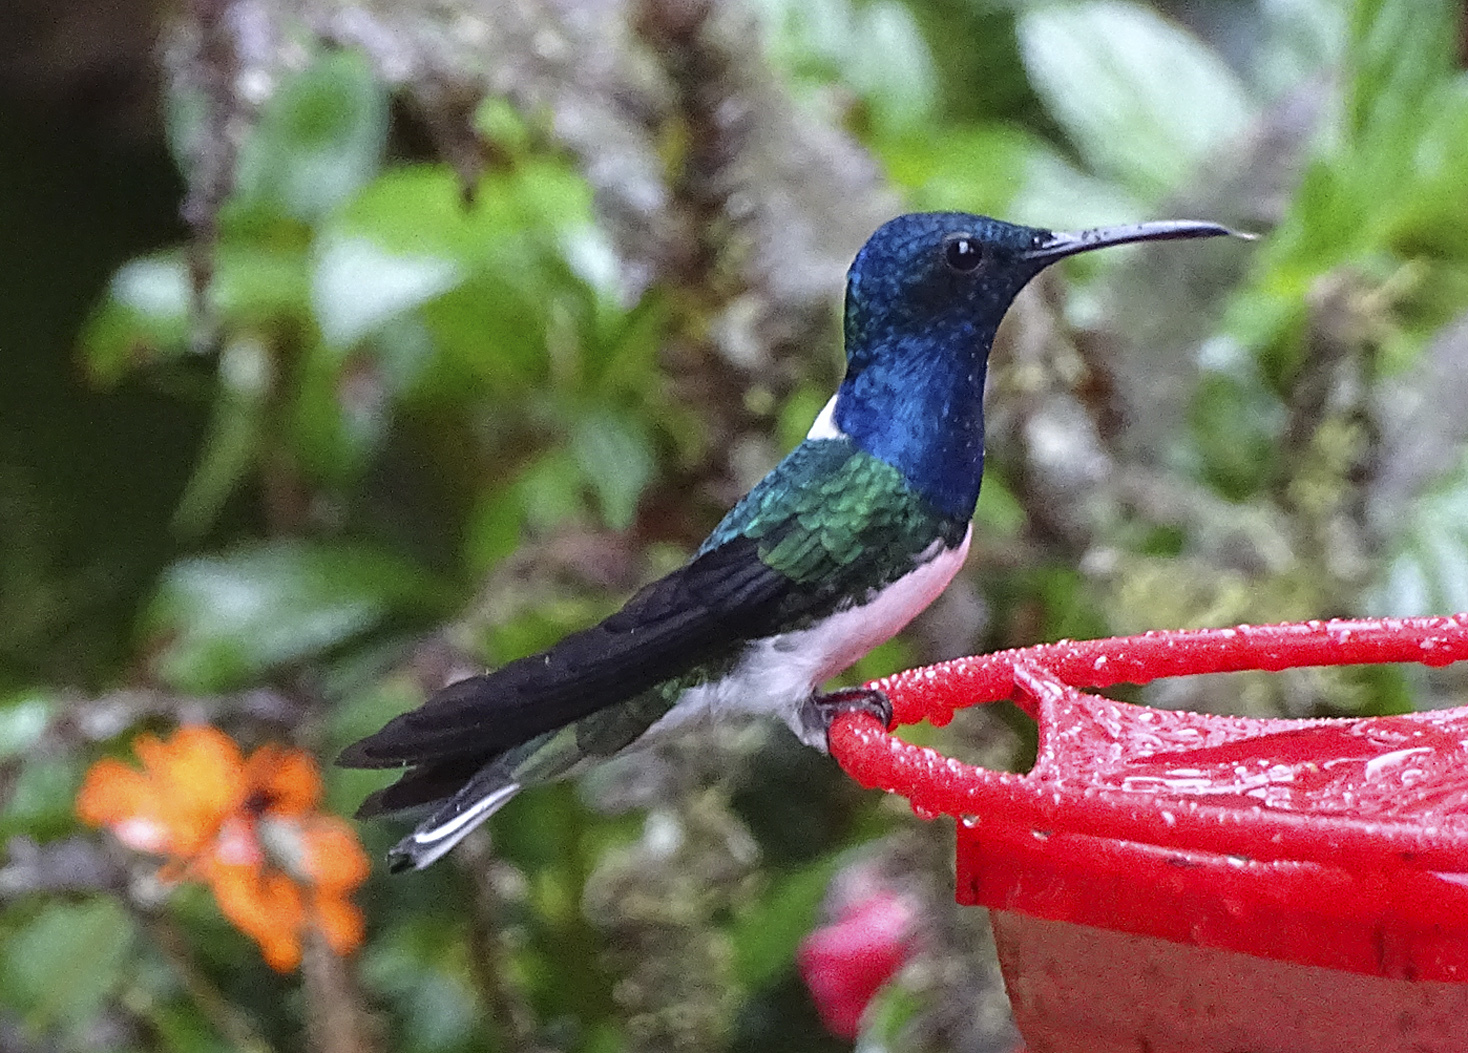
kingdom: Animalia
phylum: Chordata
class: Aves
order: Apodiformes
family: Trochilidae
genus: Florisuga
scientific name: Florisuga mellivora
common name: White-necked jacobin
